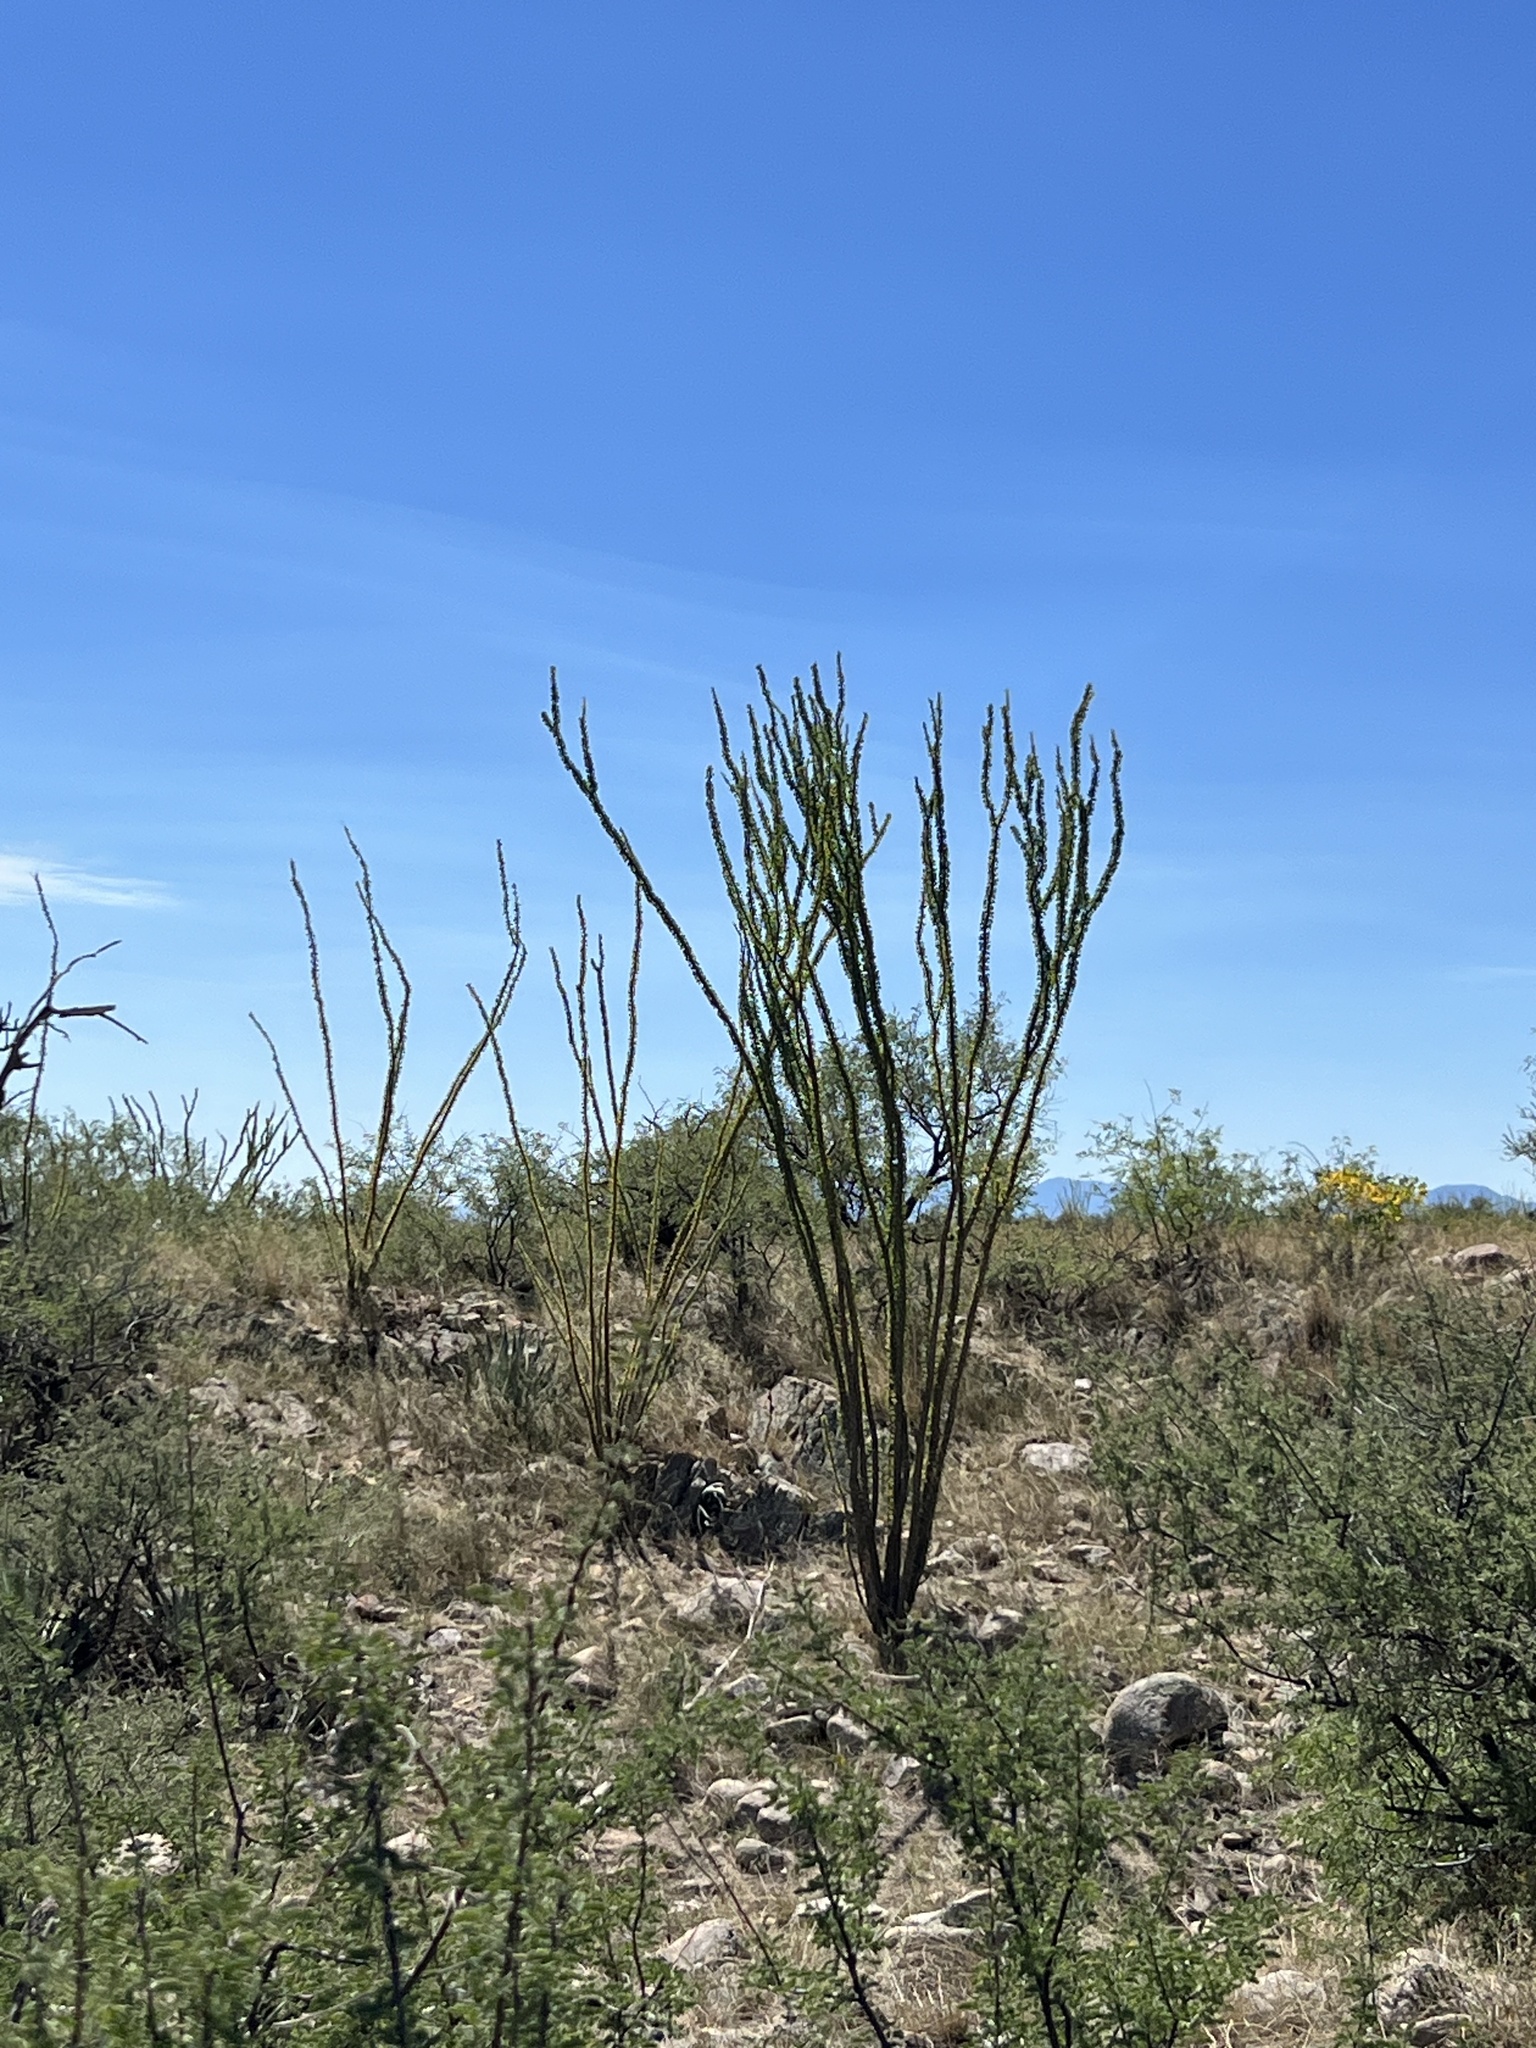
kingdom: Plantae
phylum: Tracheophyta
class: Magnoliopsida
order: Ericales
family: Fouquieriaceae
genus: Fouquieria
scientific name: Fouquieria splendens
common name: Vine-cactus
